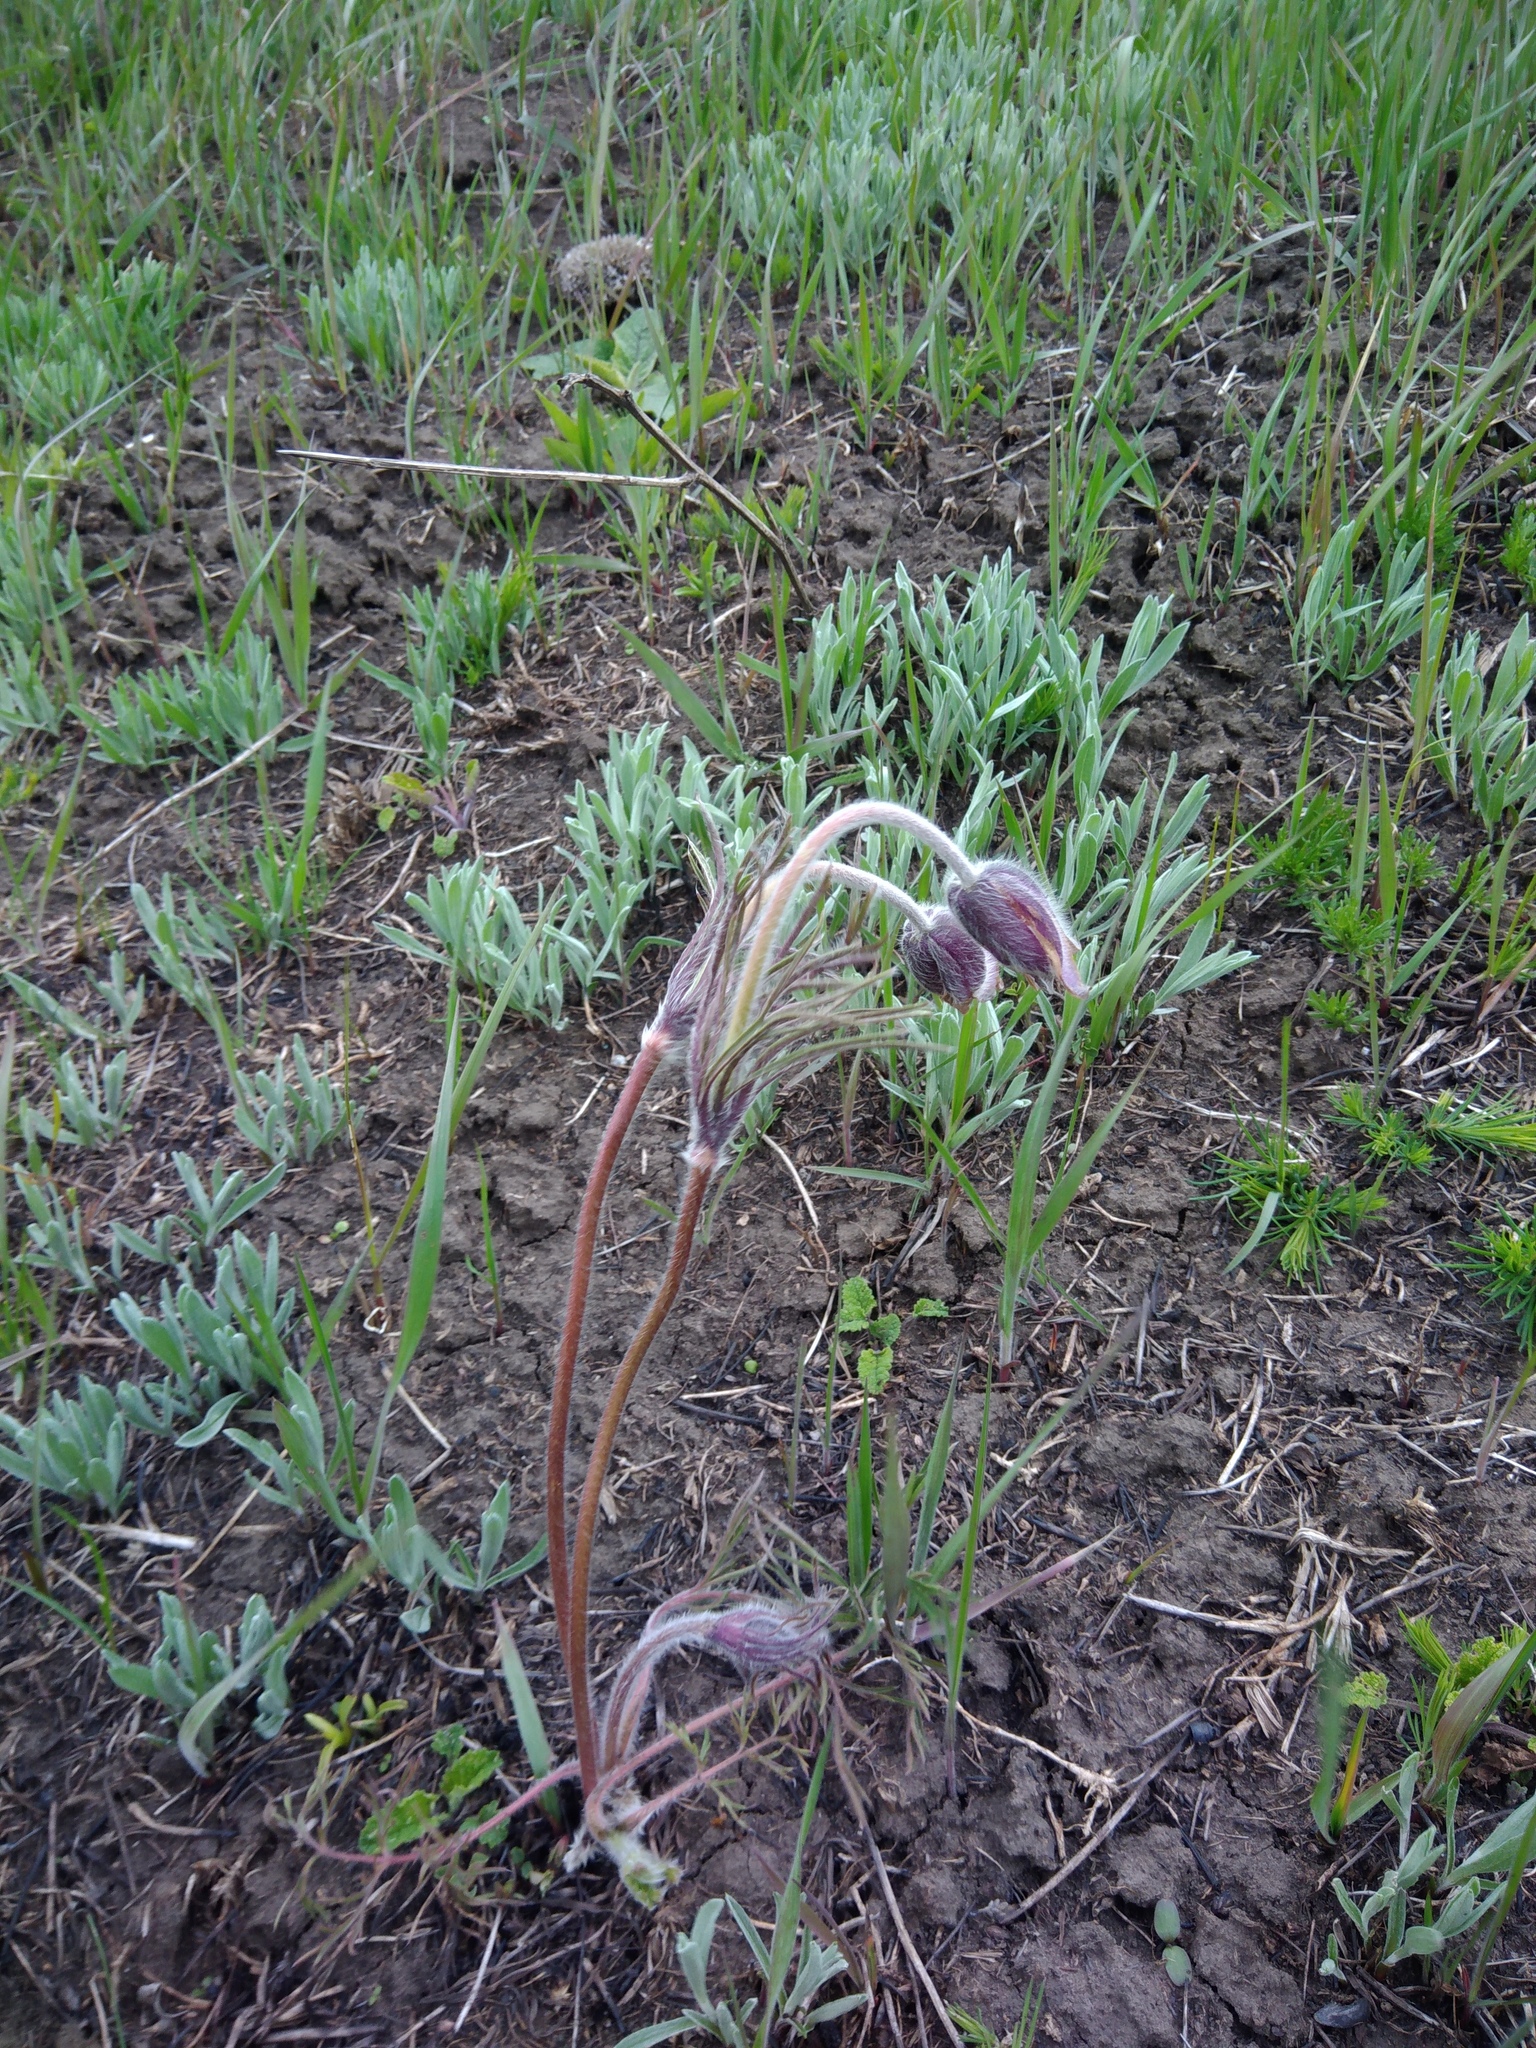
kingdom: Plantae
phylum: Tracheophyta
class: Magnoliopsida
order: Ranunculales
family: Ranunculaceae
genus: Pulsatilla
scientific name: Pulsatilla pratensis
